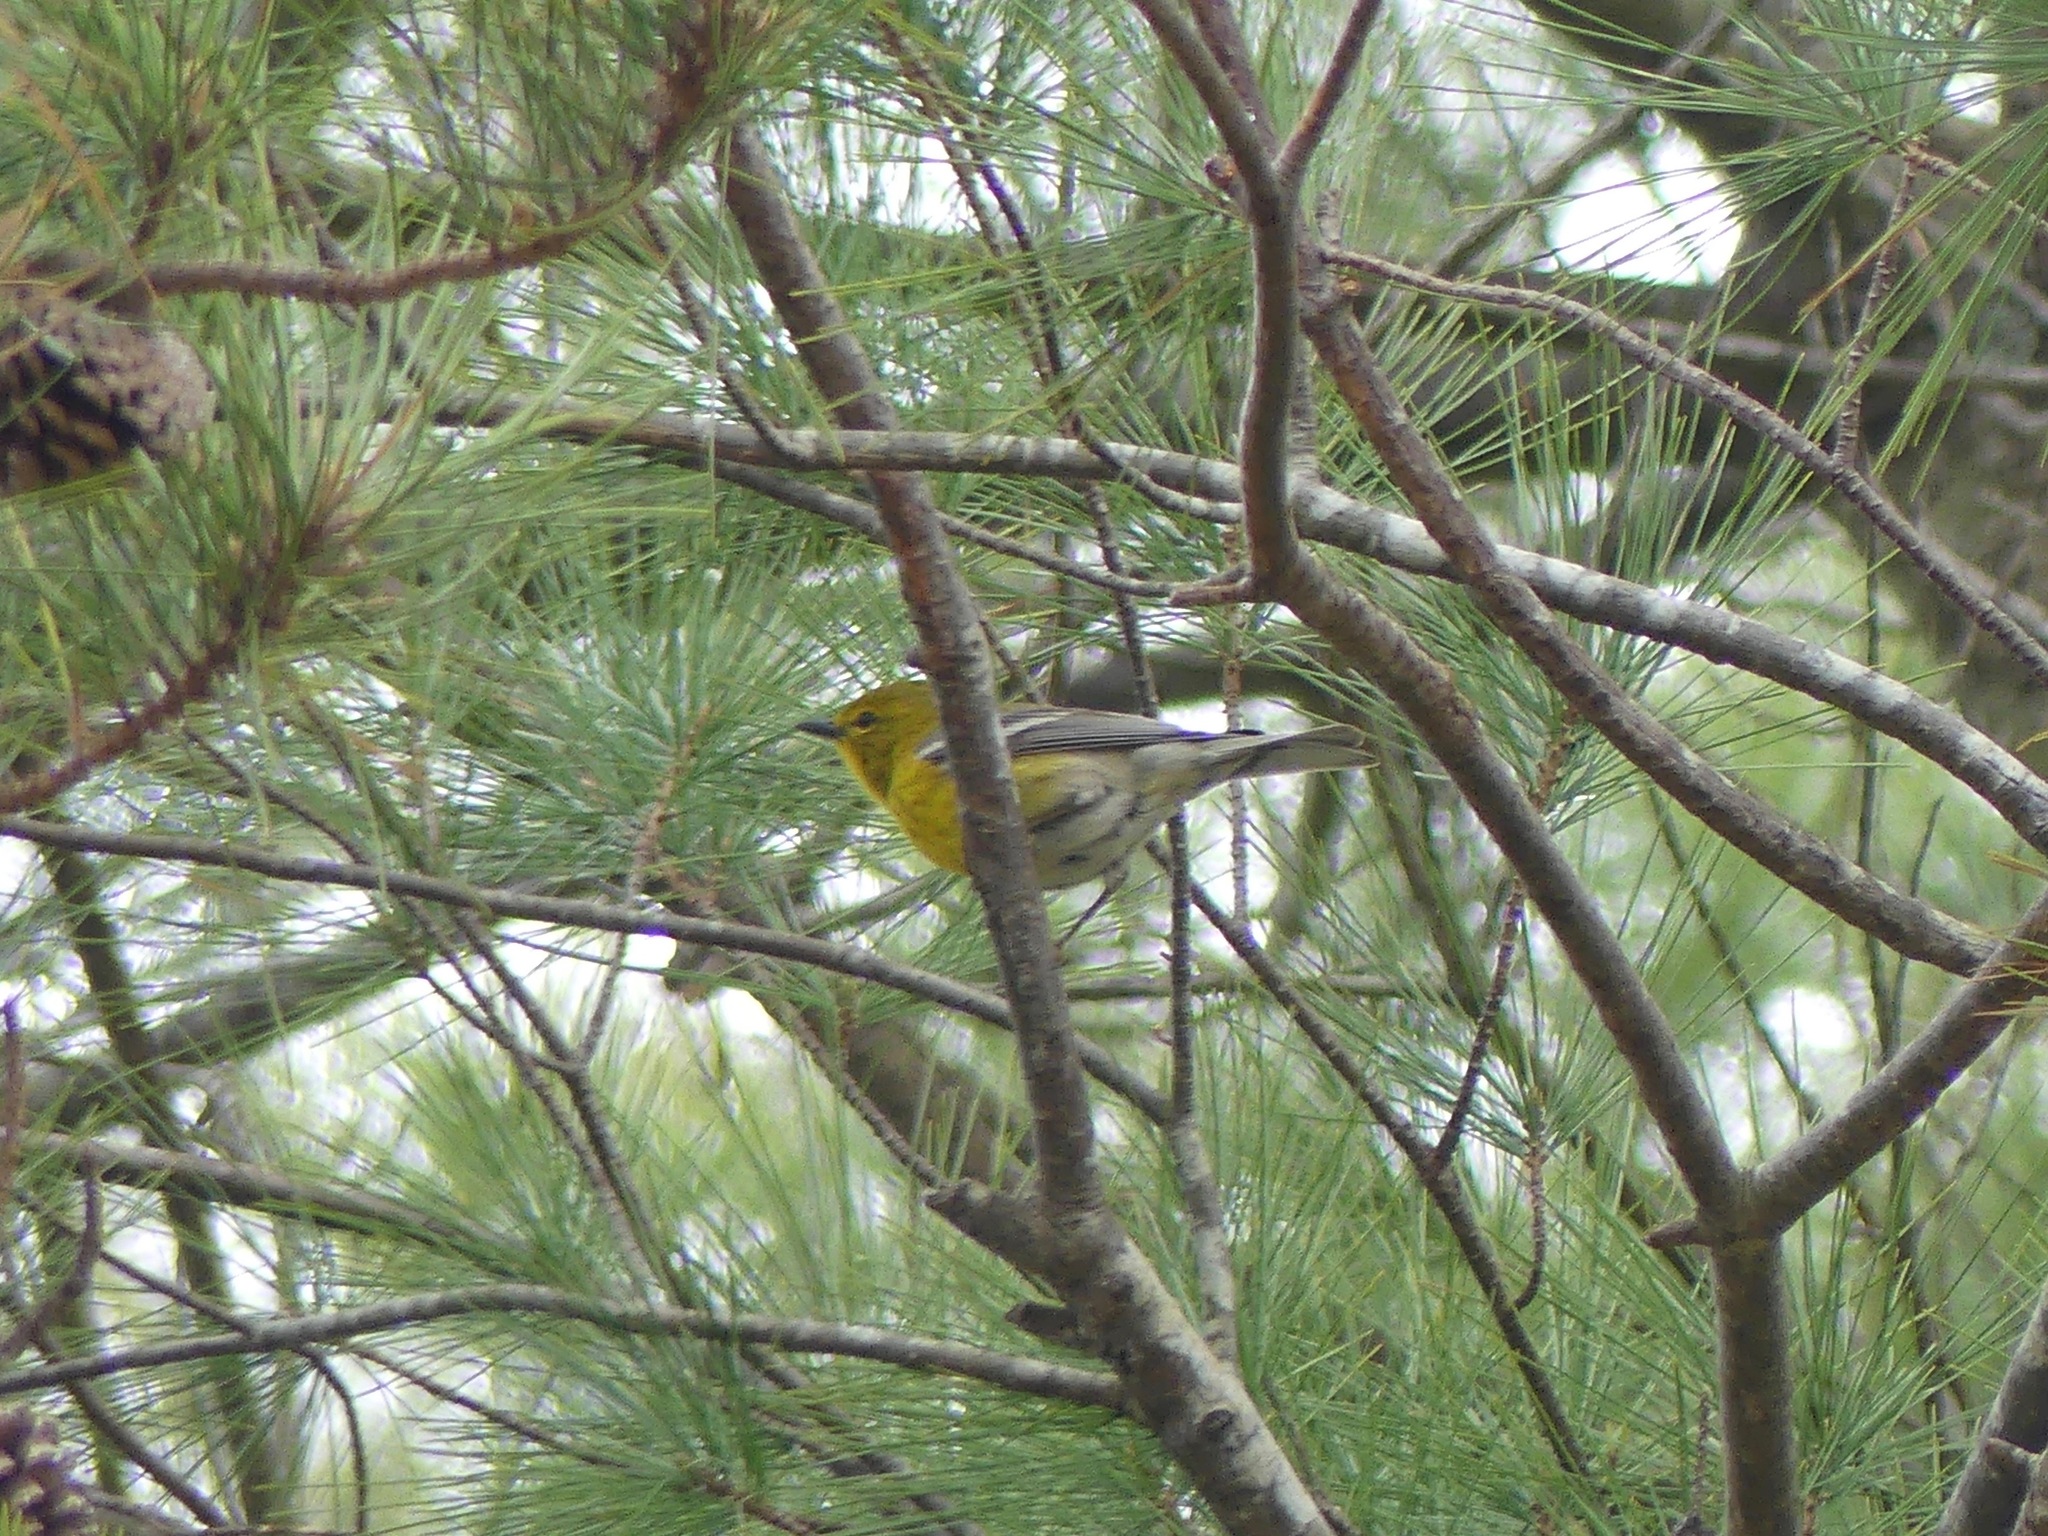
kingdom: Animalia
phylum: Chordata
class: Aves
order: Passeriformes
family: Parulidae
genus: Setophaga
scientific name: Setophaga pinus
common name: Pine warbler
